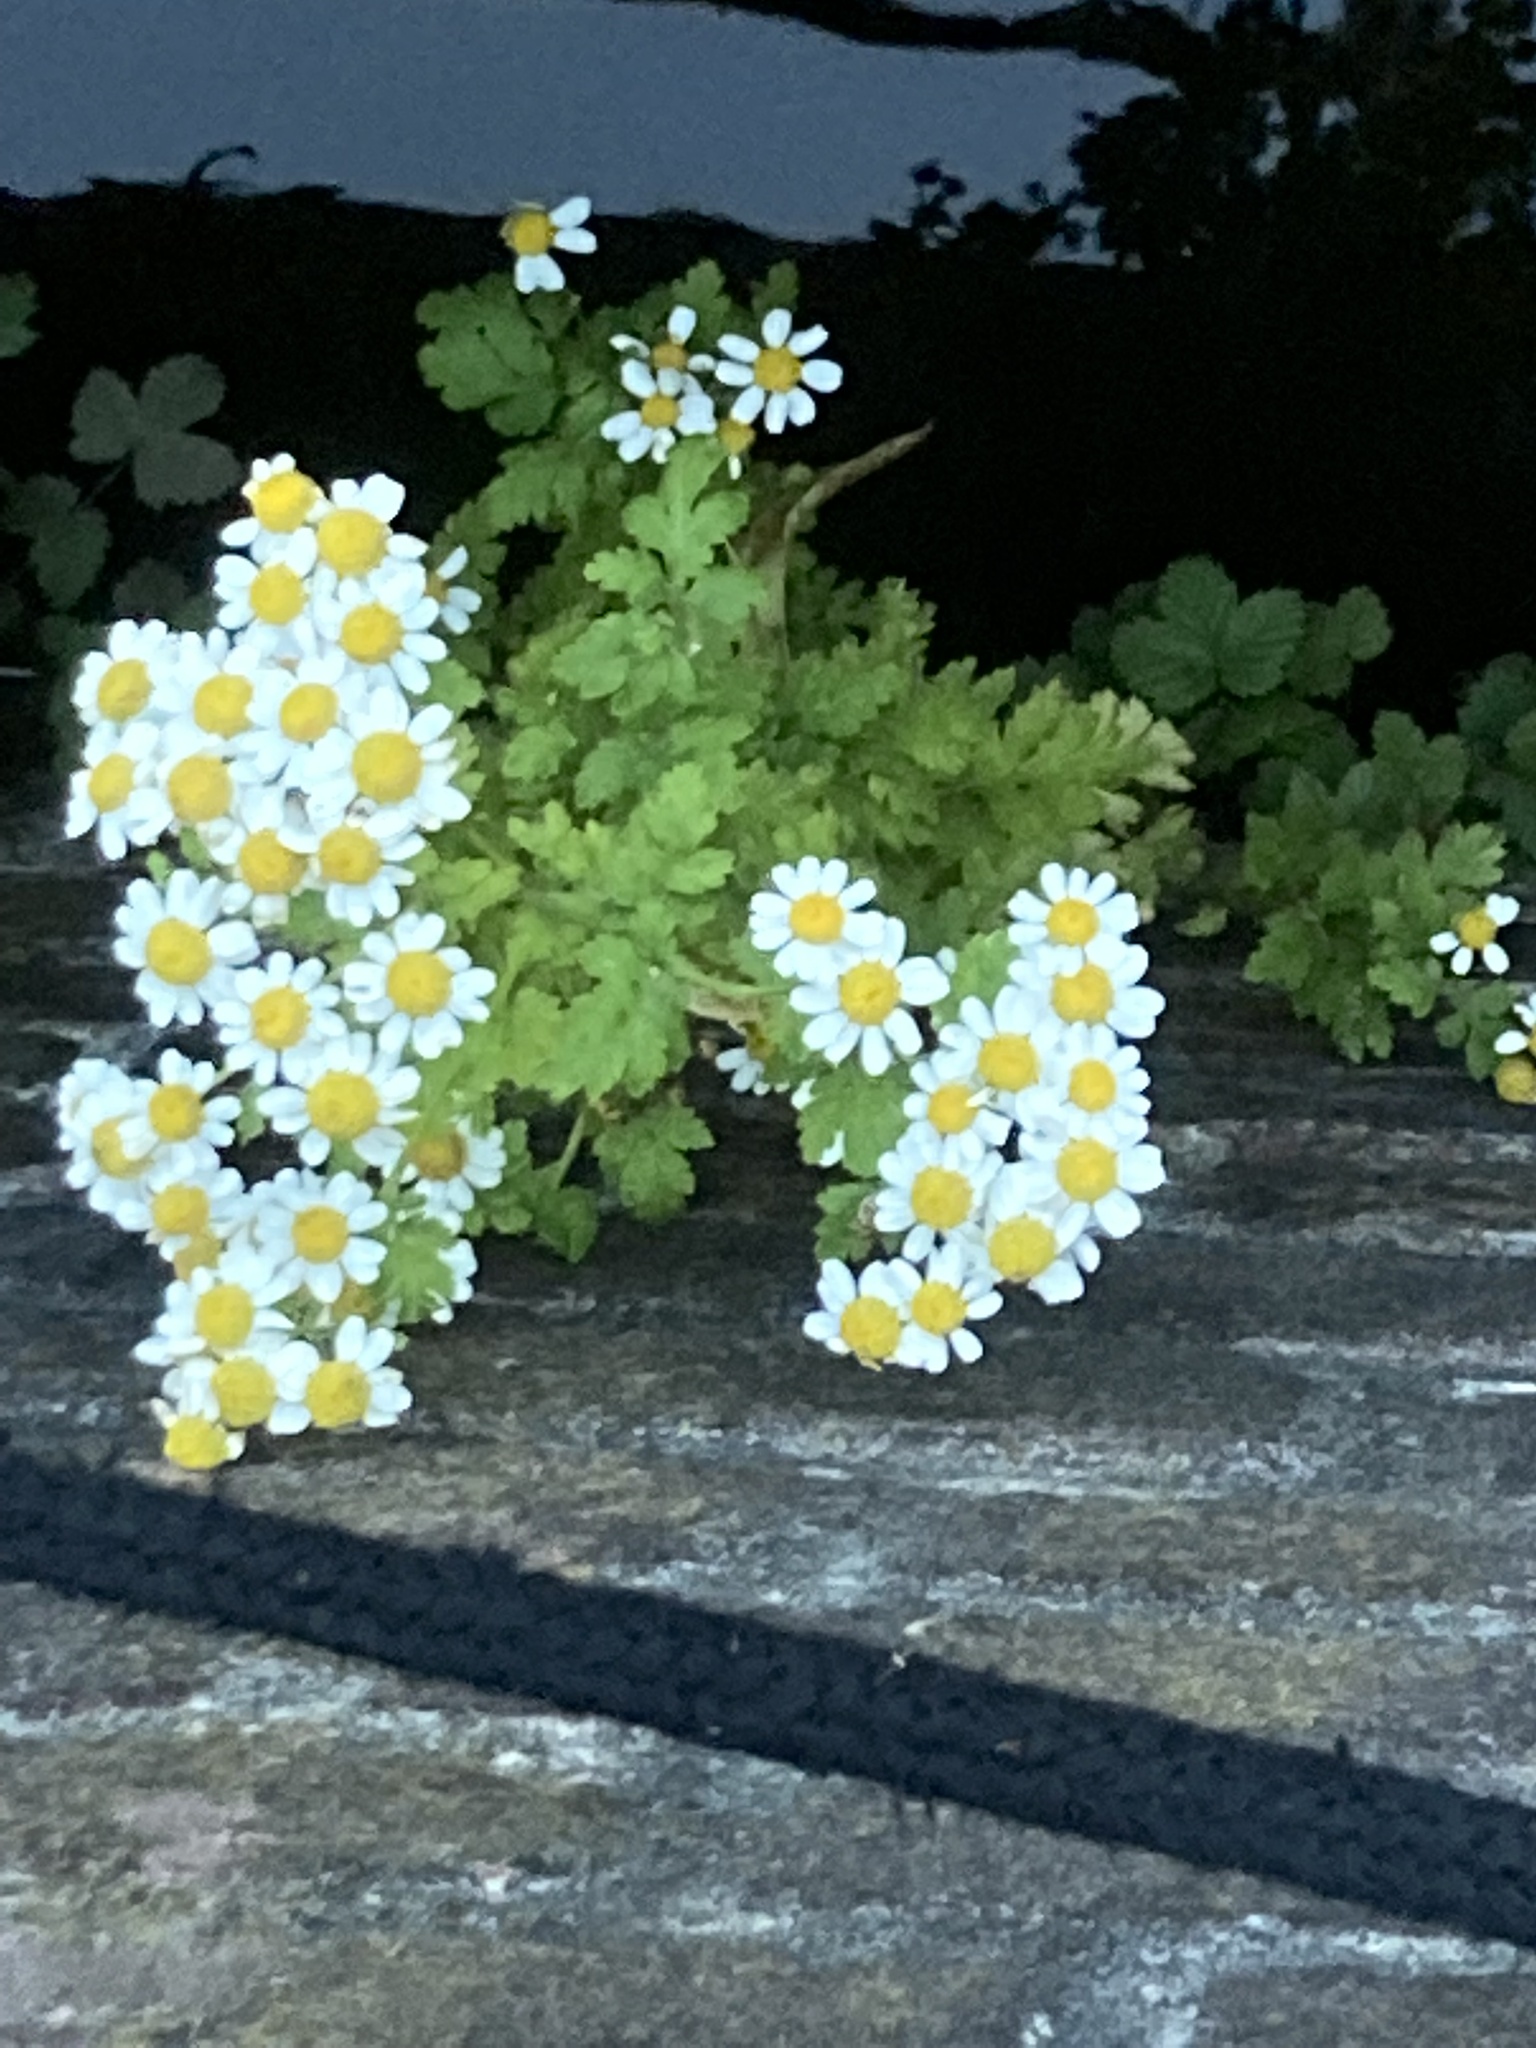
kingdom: Plantae
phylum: Tracheophyta
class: Magnoliopsida
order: Asterales
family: Asteraceae
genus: Tanacetum
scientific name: Tanacetum parthenium
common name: Feverfew
